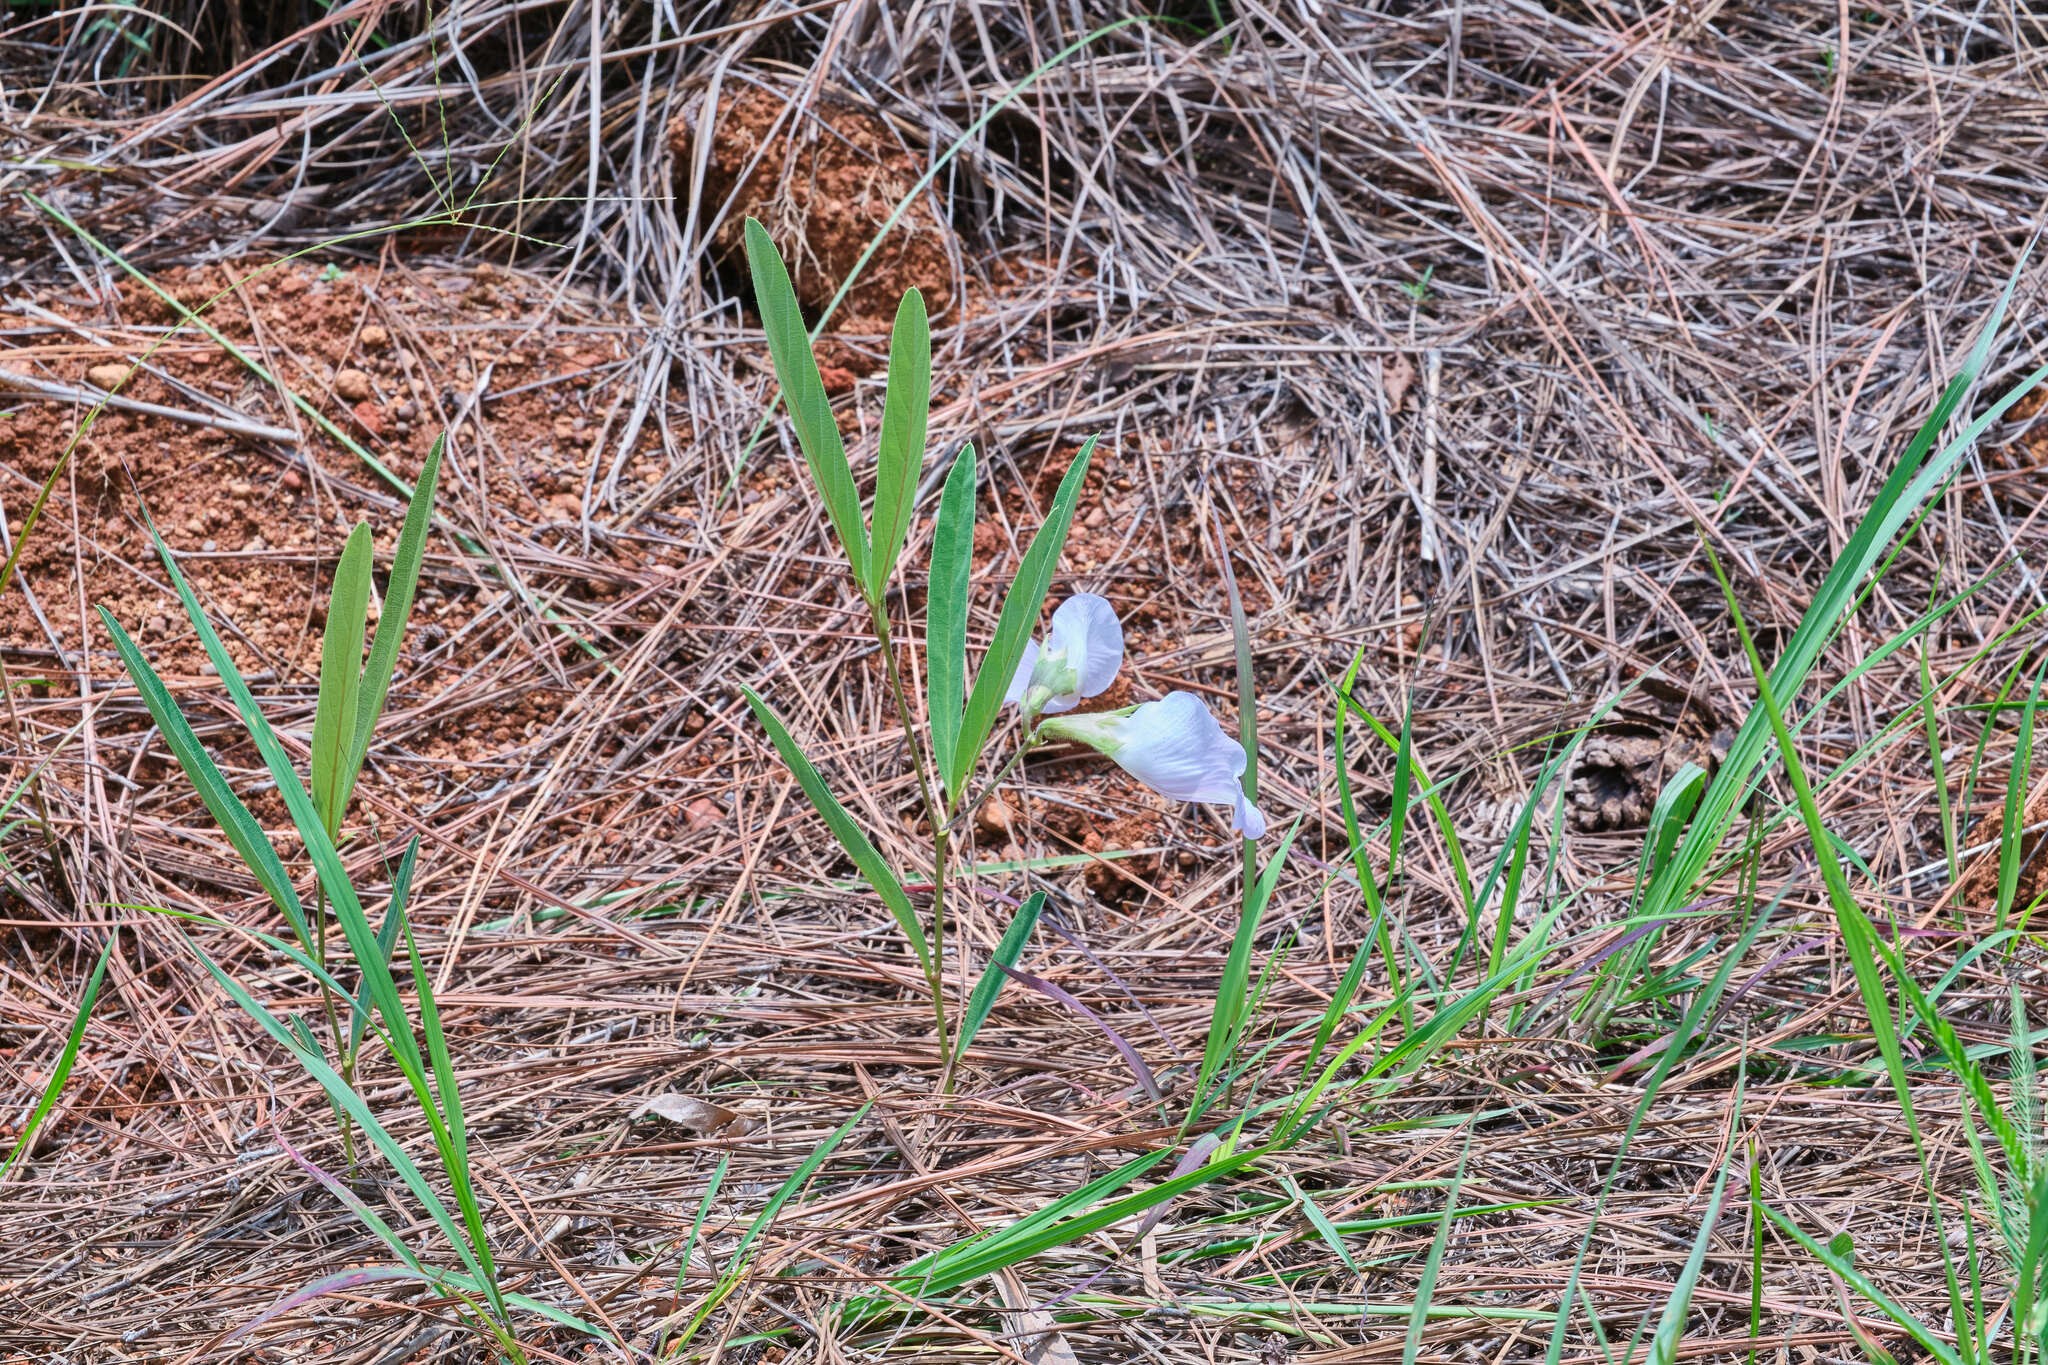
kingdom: Plantae
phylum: Tracheophyta
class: Magnoliopsida
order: Fabales
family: Fabaceae
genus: Clitoria
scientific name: Clitoria guianensis
